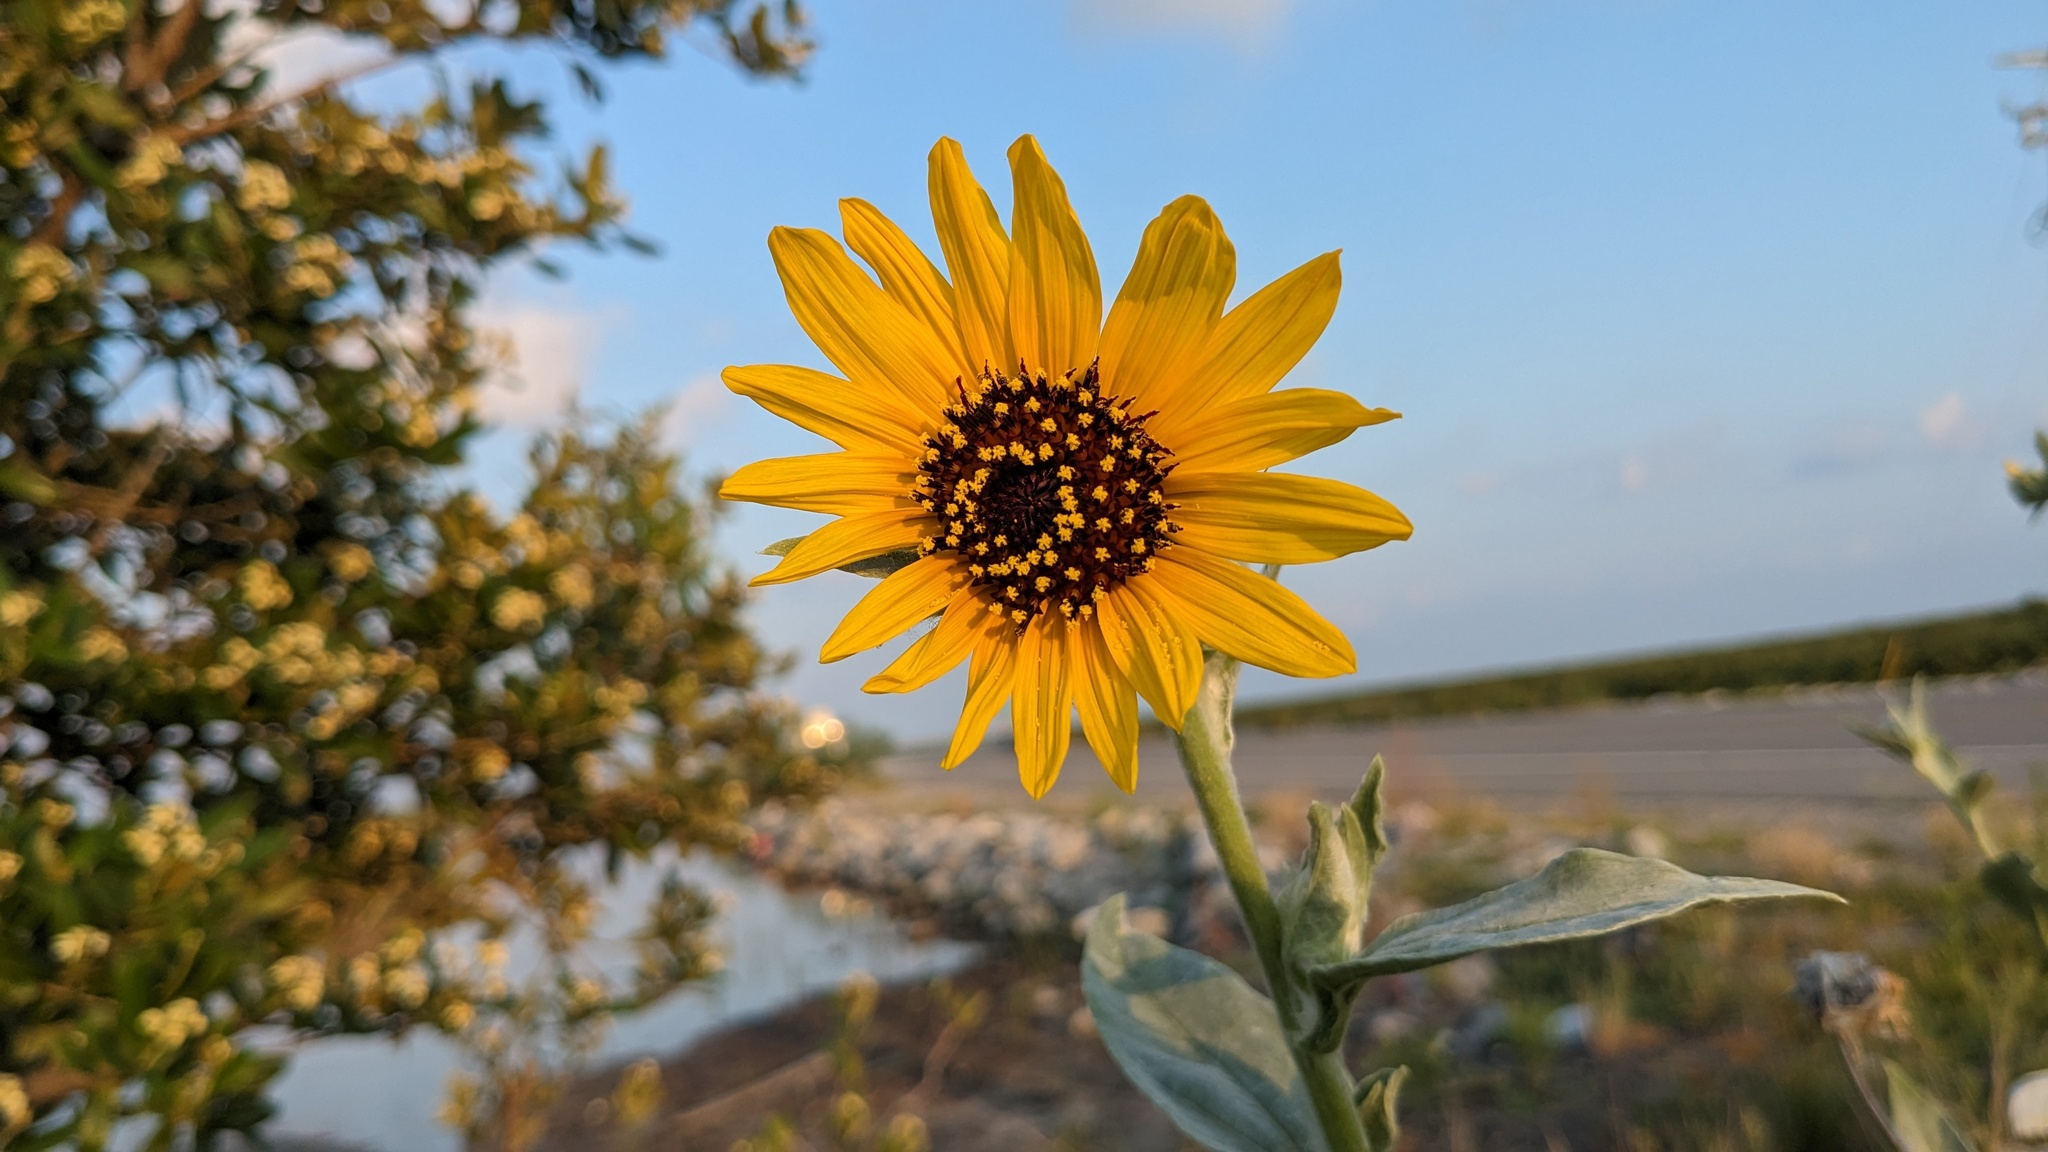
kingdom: Plantae
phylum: Tracheophyta
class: Magnoliopsida
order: Asterales
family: Asteraceae
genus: Helianthus
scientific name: Helianthus argophyllus
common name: Silverleaf sunflower
